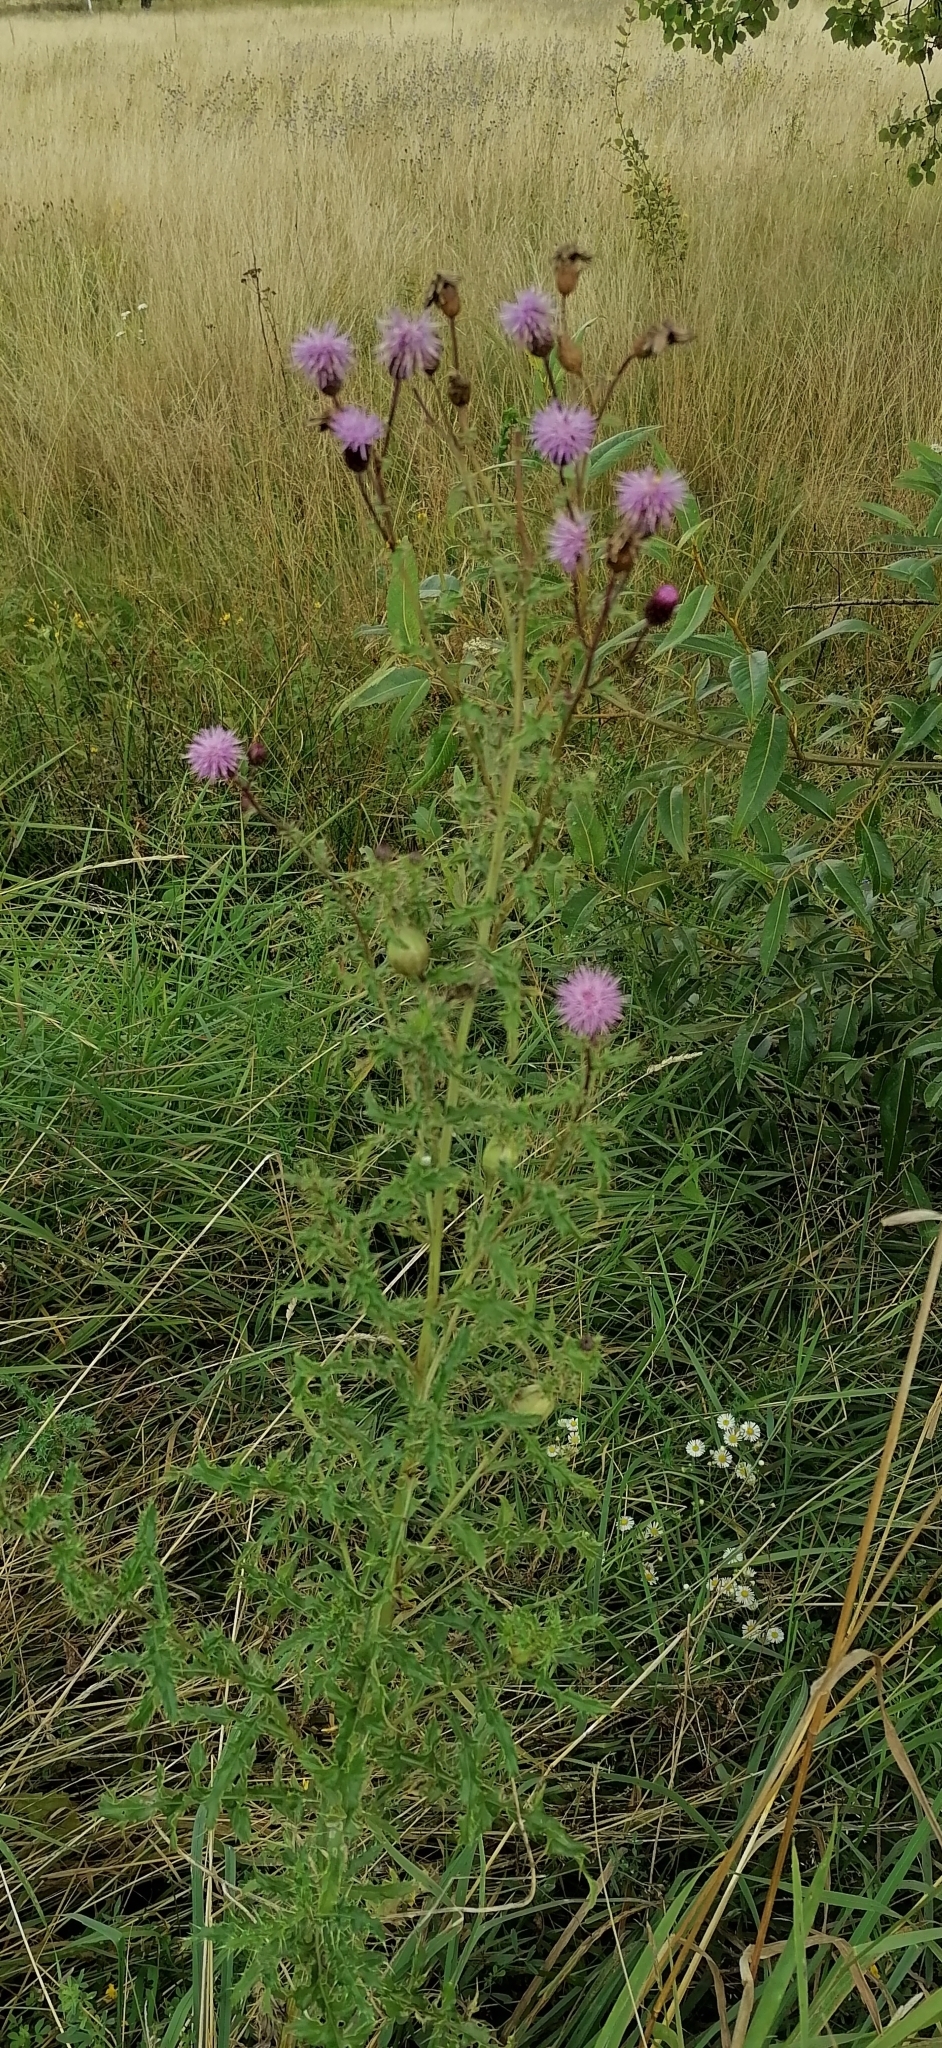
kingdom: Plantae
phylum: Tracheophyta
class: Magnoliopsida
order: Asterales
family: Asteraceae
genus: Cirsium
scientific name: Cirsium arvense
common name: Creeping thistle
